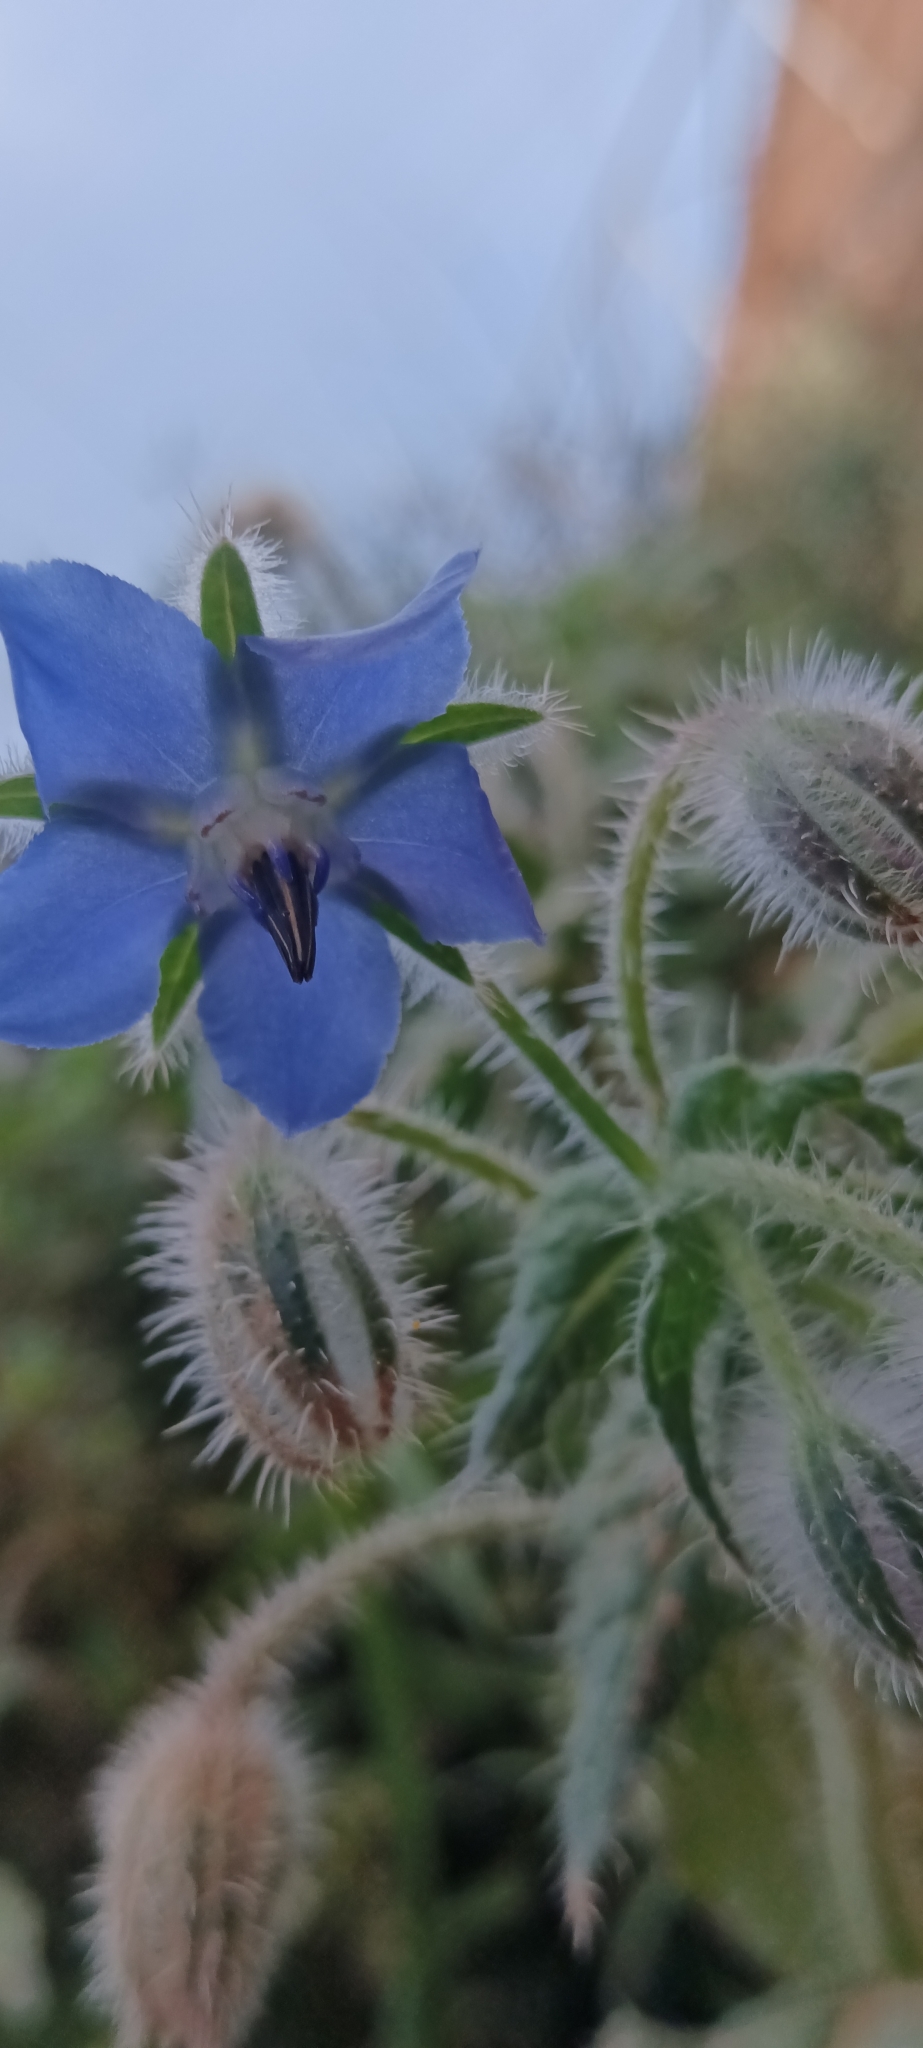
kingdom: Plantae
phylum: Tracheophyta
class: Magnoliopsida
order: Boraginales
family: Boraginaceae
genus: Borago
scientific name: Borago officinalis
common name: Borage
